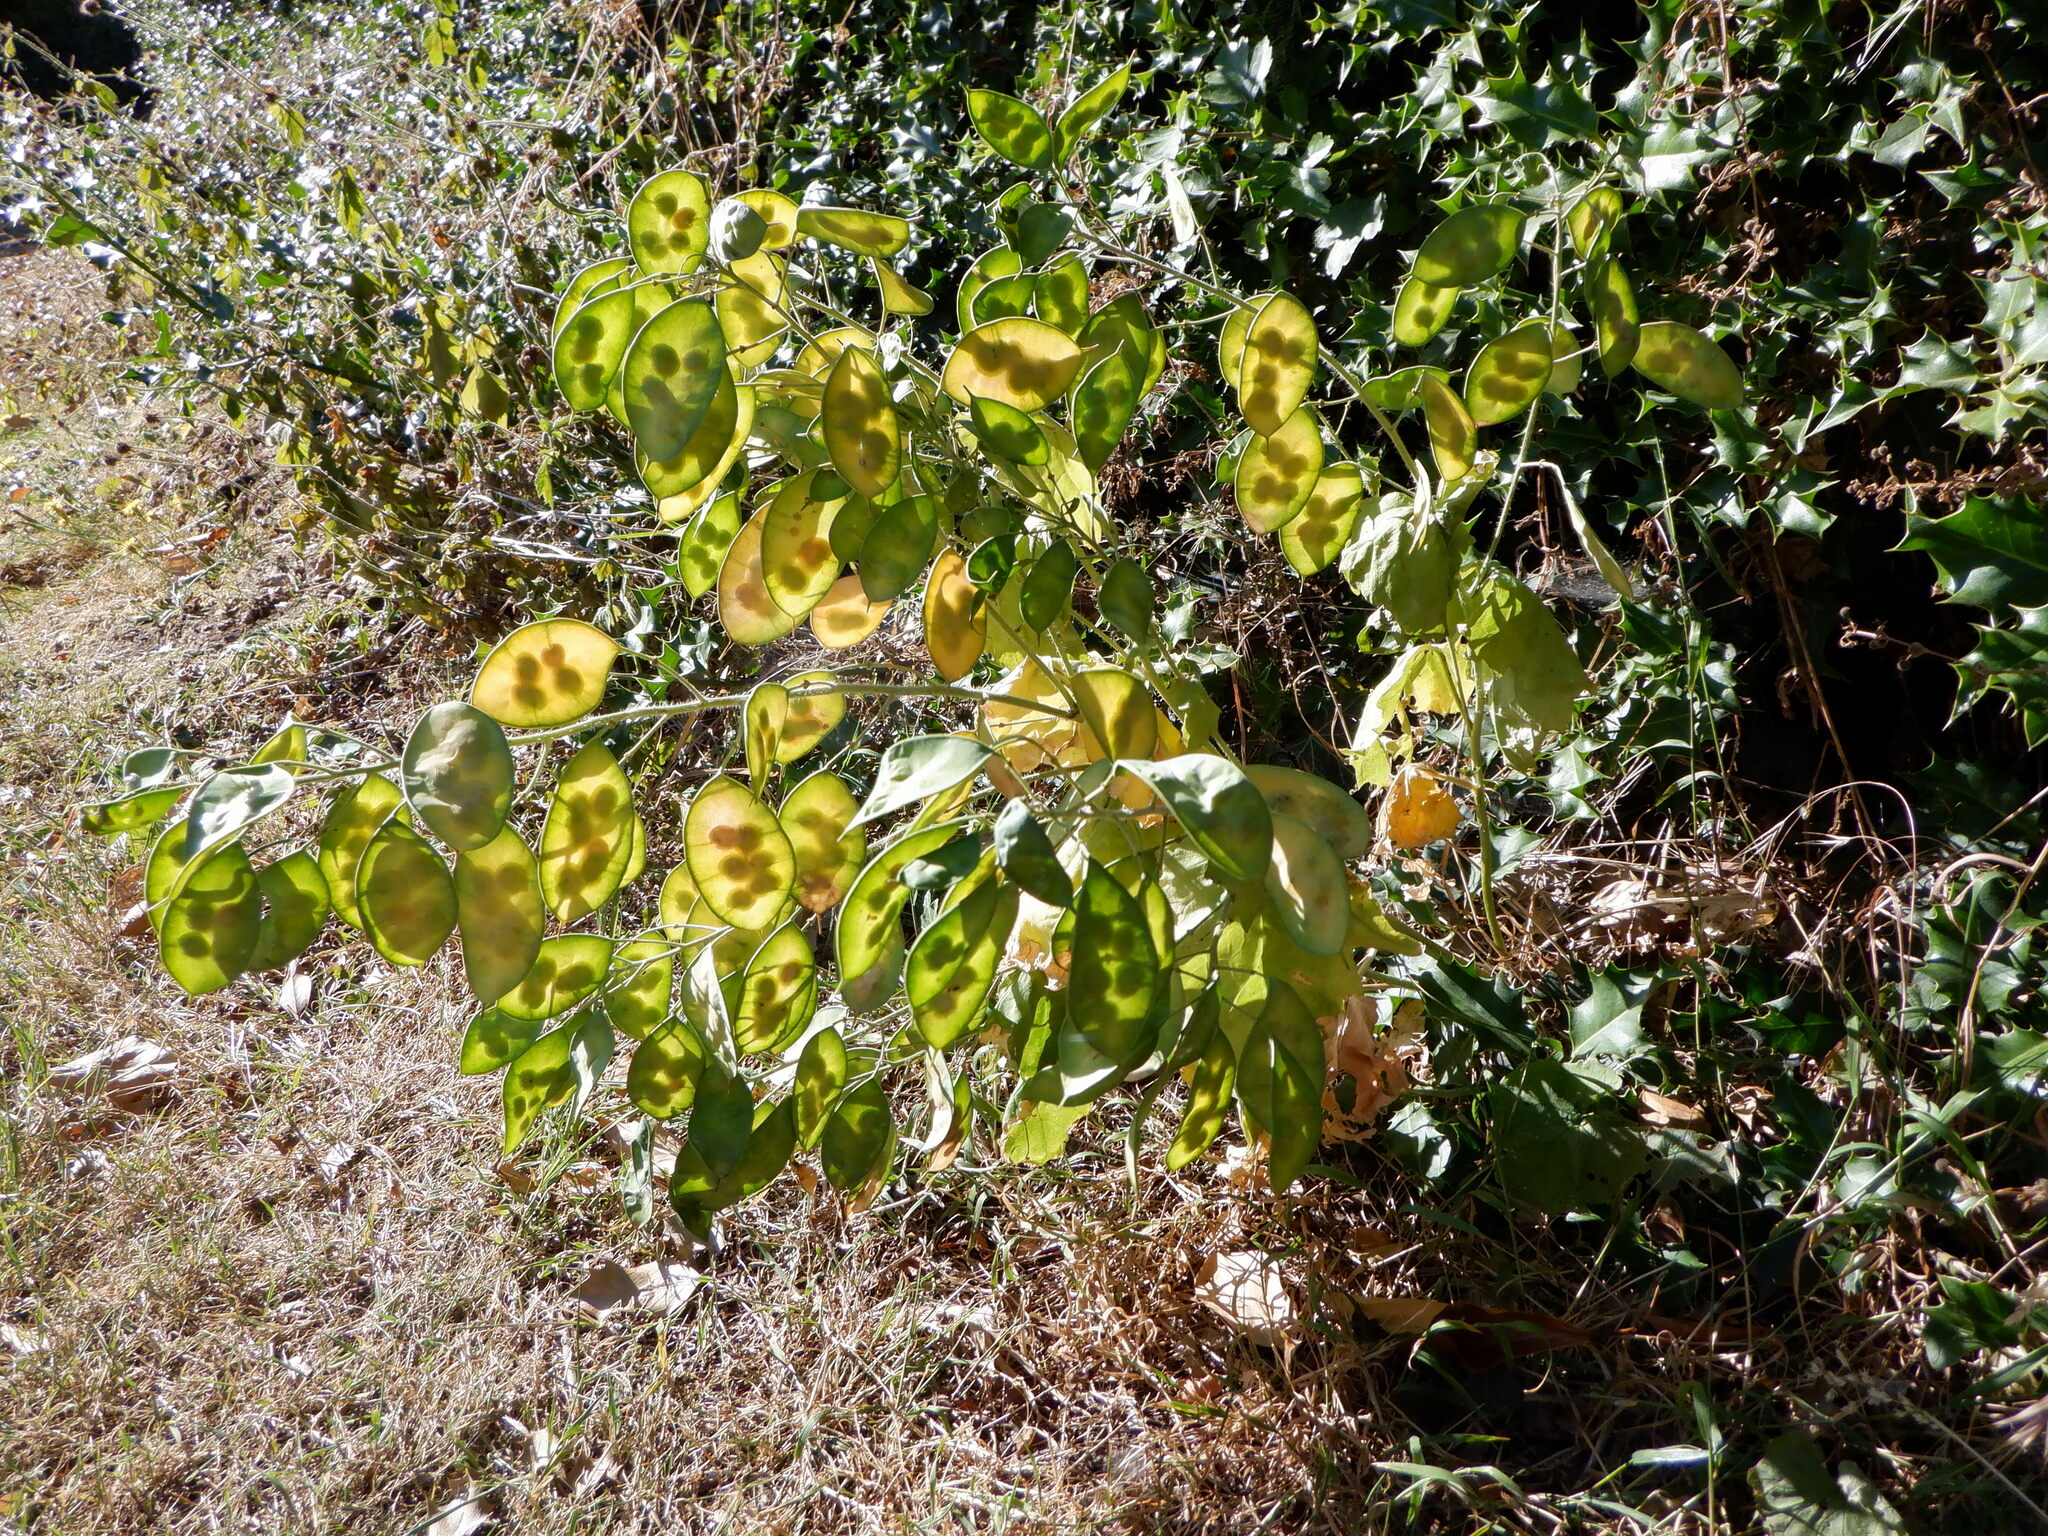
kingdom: Plantae
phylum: Tracheophyta
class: Magnoliopsida
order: Brassicales
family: Brassicaceae
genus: Lunaria
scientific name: Lunaria annua
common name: Honesty
